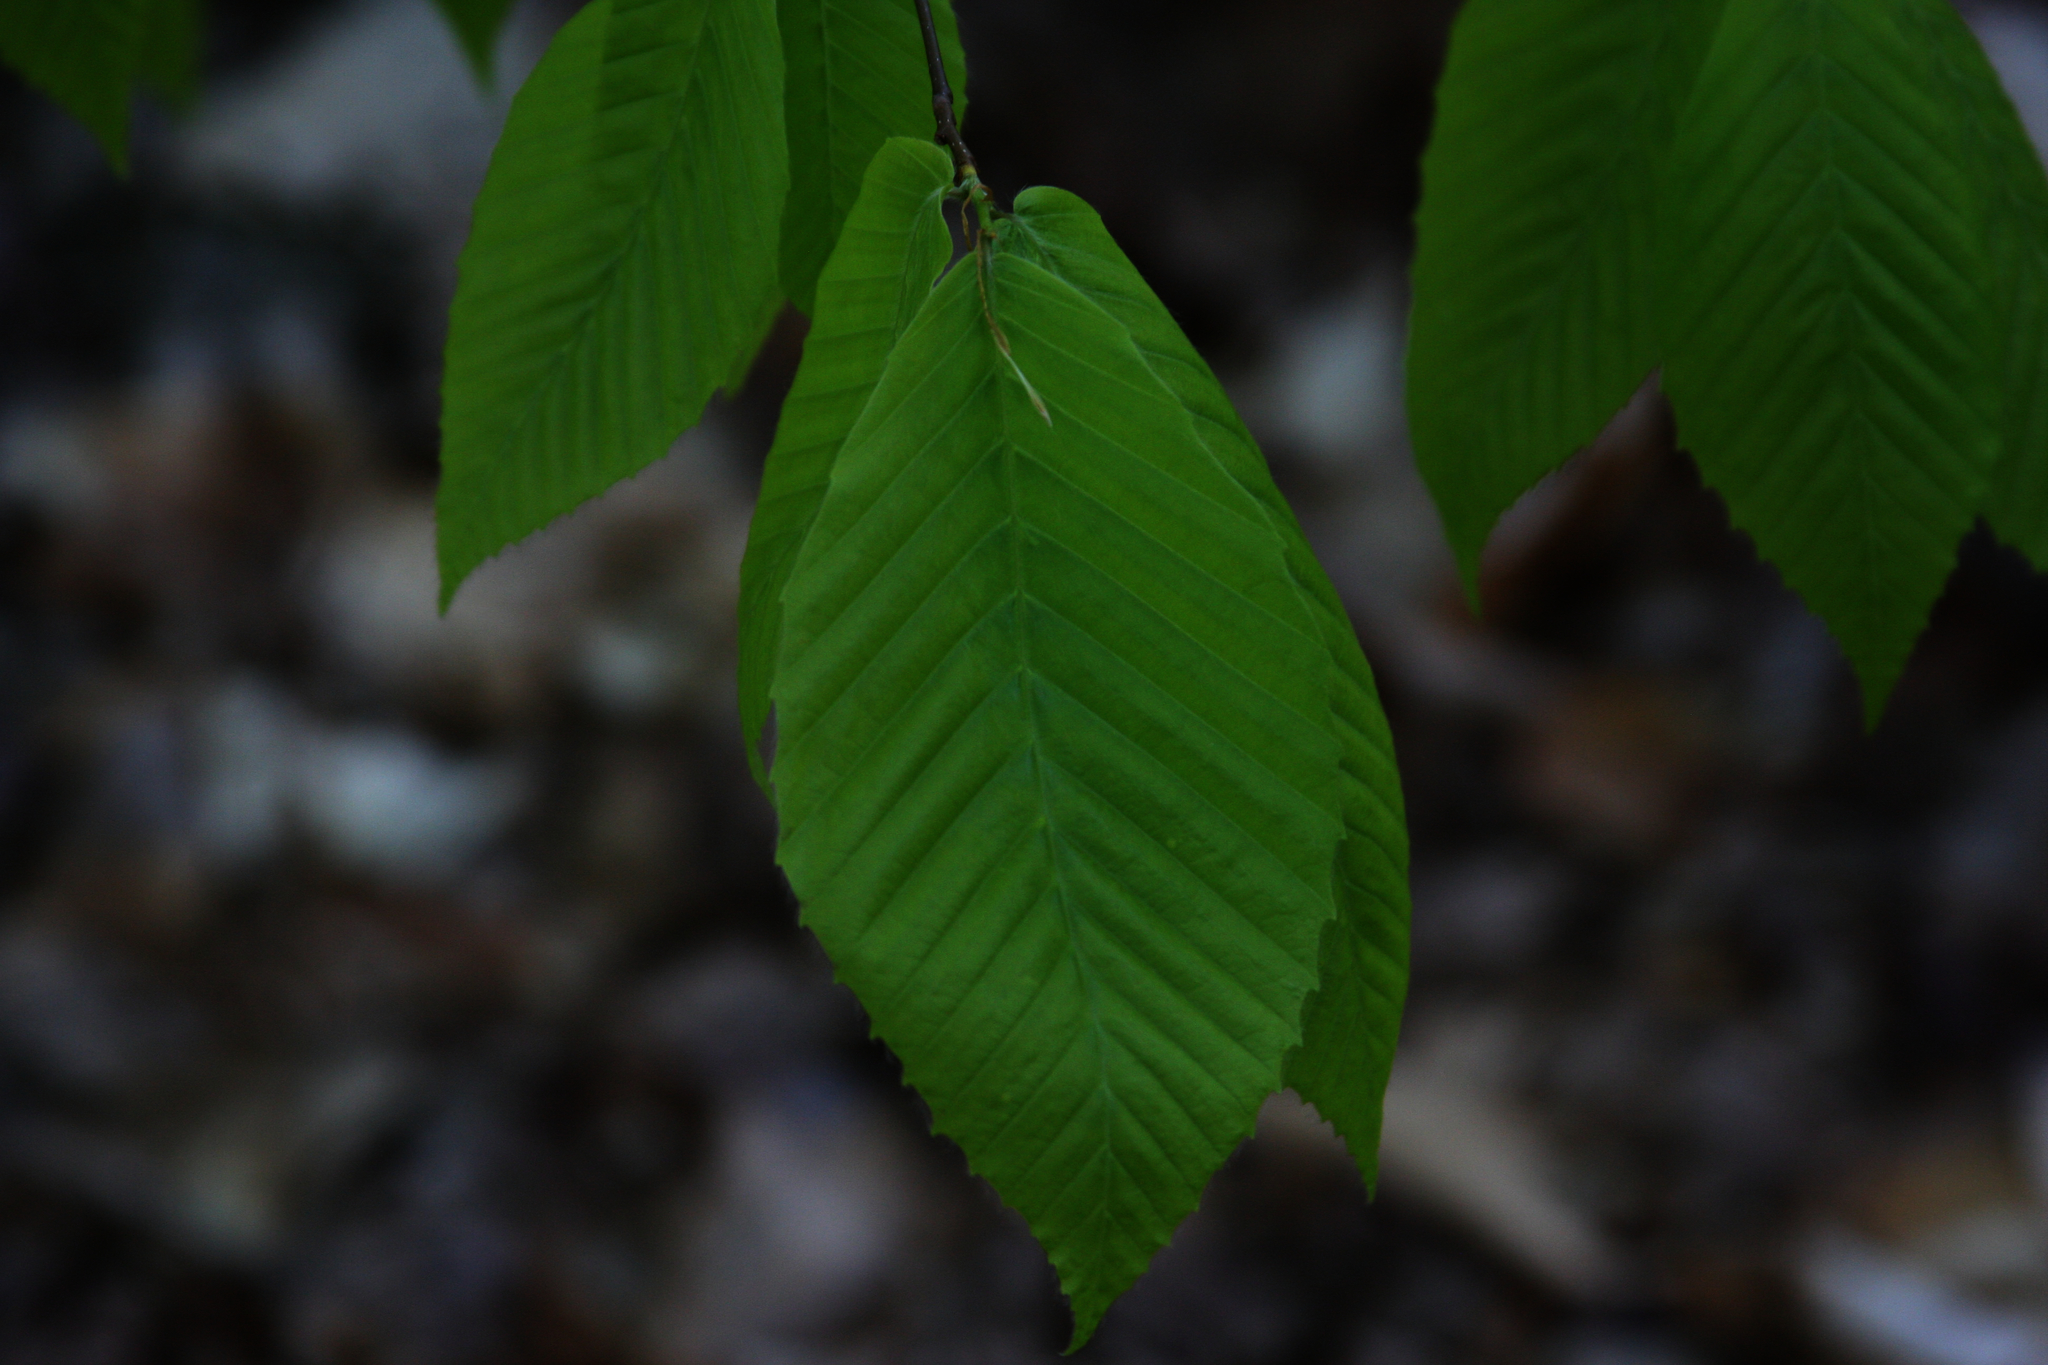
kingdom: Plantae
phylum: Tracheophyta
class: Magnoliopsida
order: Fagales
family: Fagaceae
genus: Fagus
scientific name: Fagus grandifolia
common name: American beech
